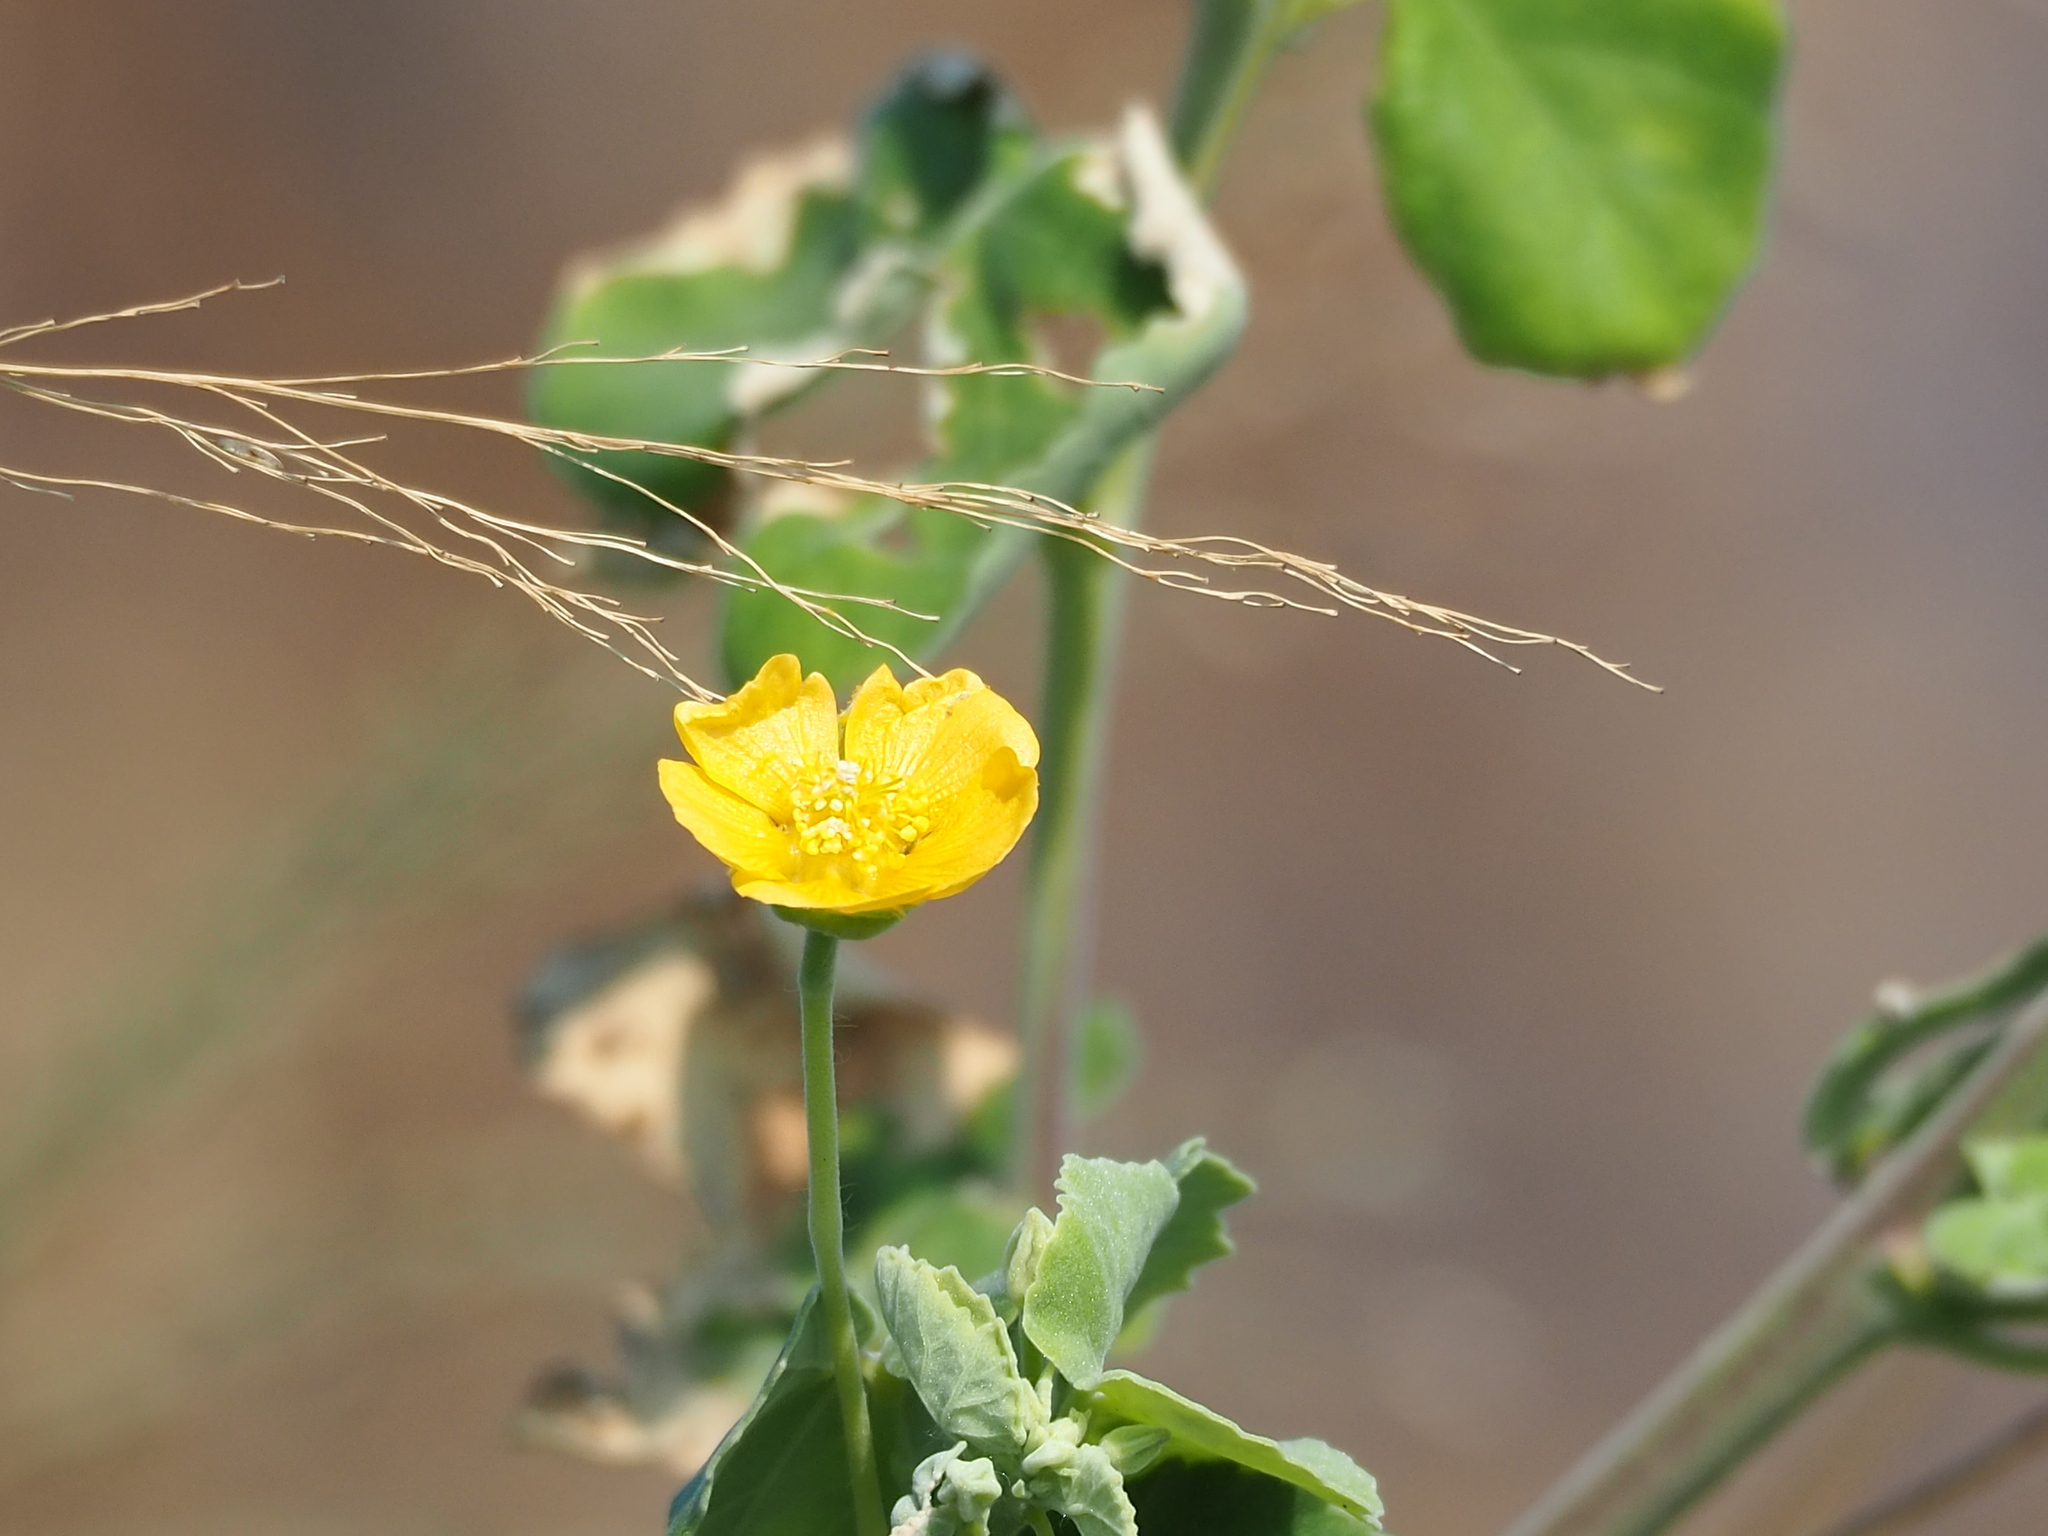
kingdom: Plantae
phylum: Tracheophyta
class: Magnoliopsida
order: Malvales
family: Malvaceae
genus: Abutilon
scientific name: Abutilon indicum
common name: Indian abutilon
